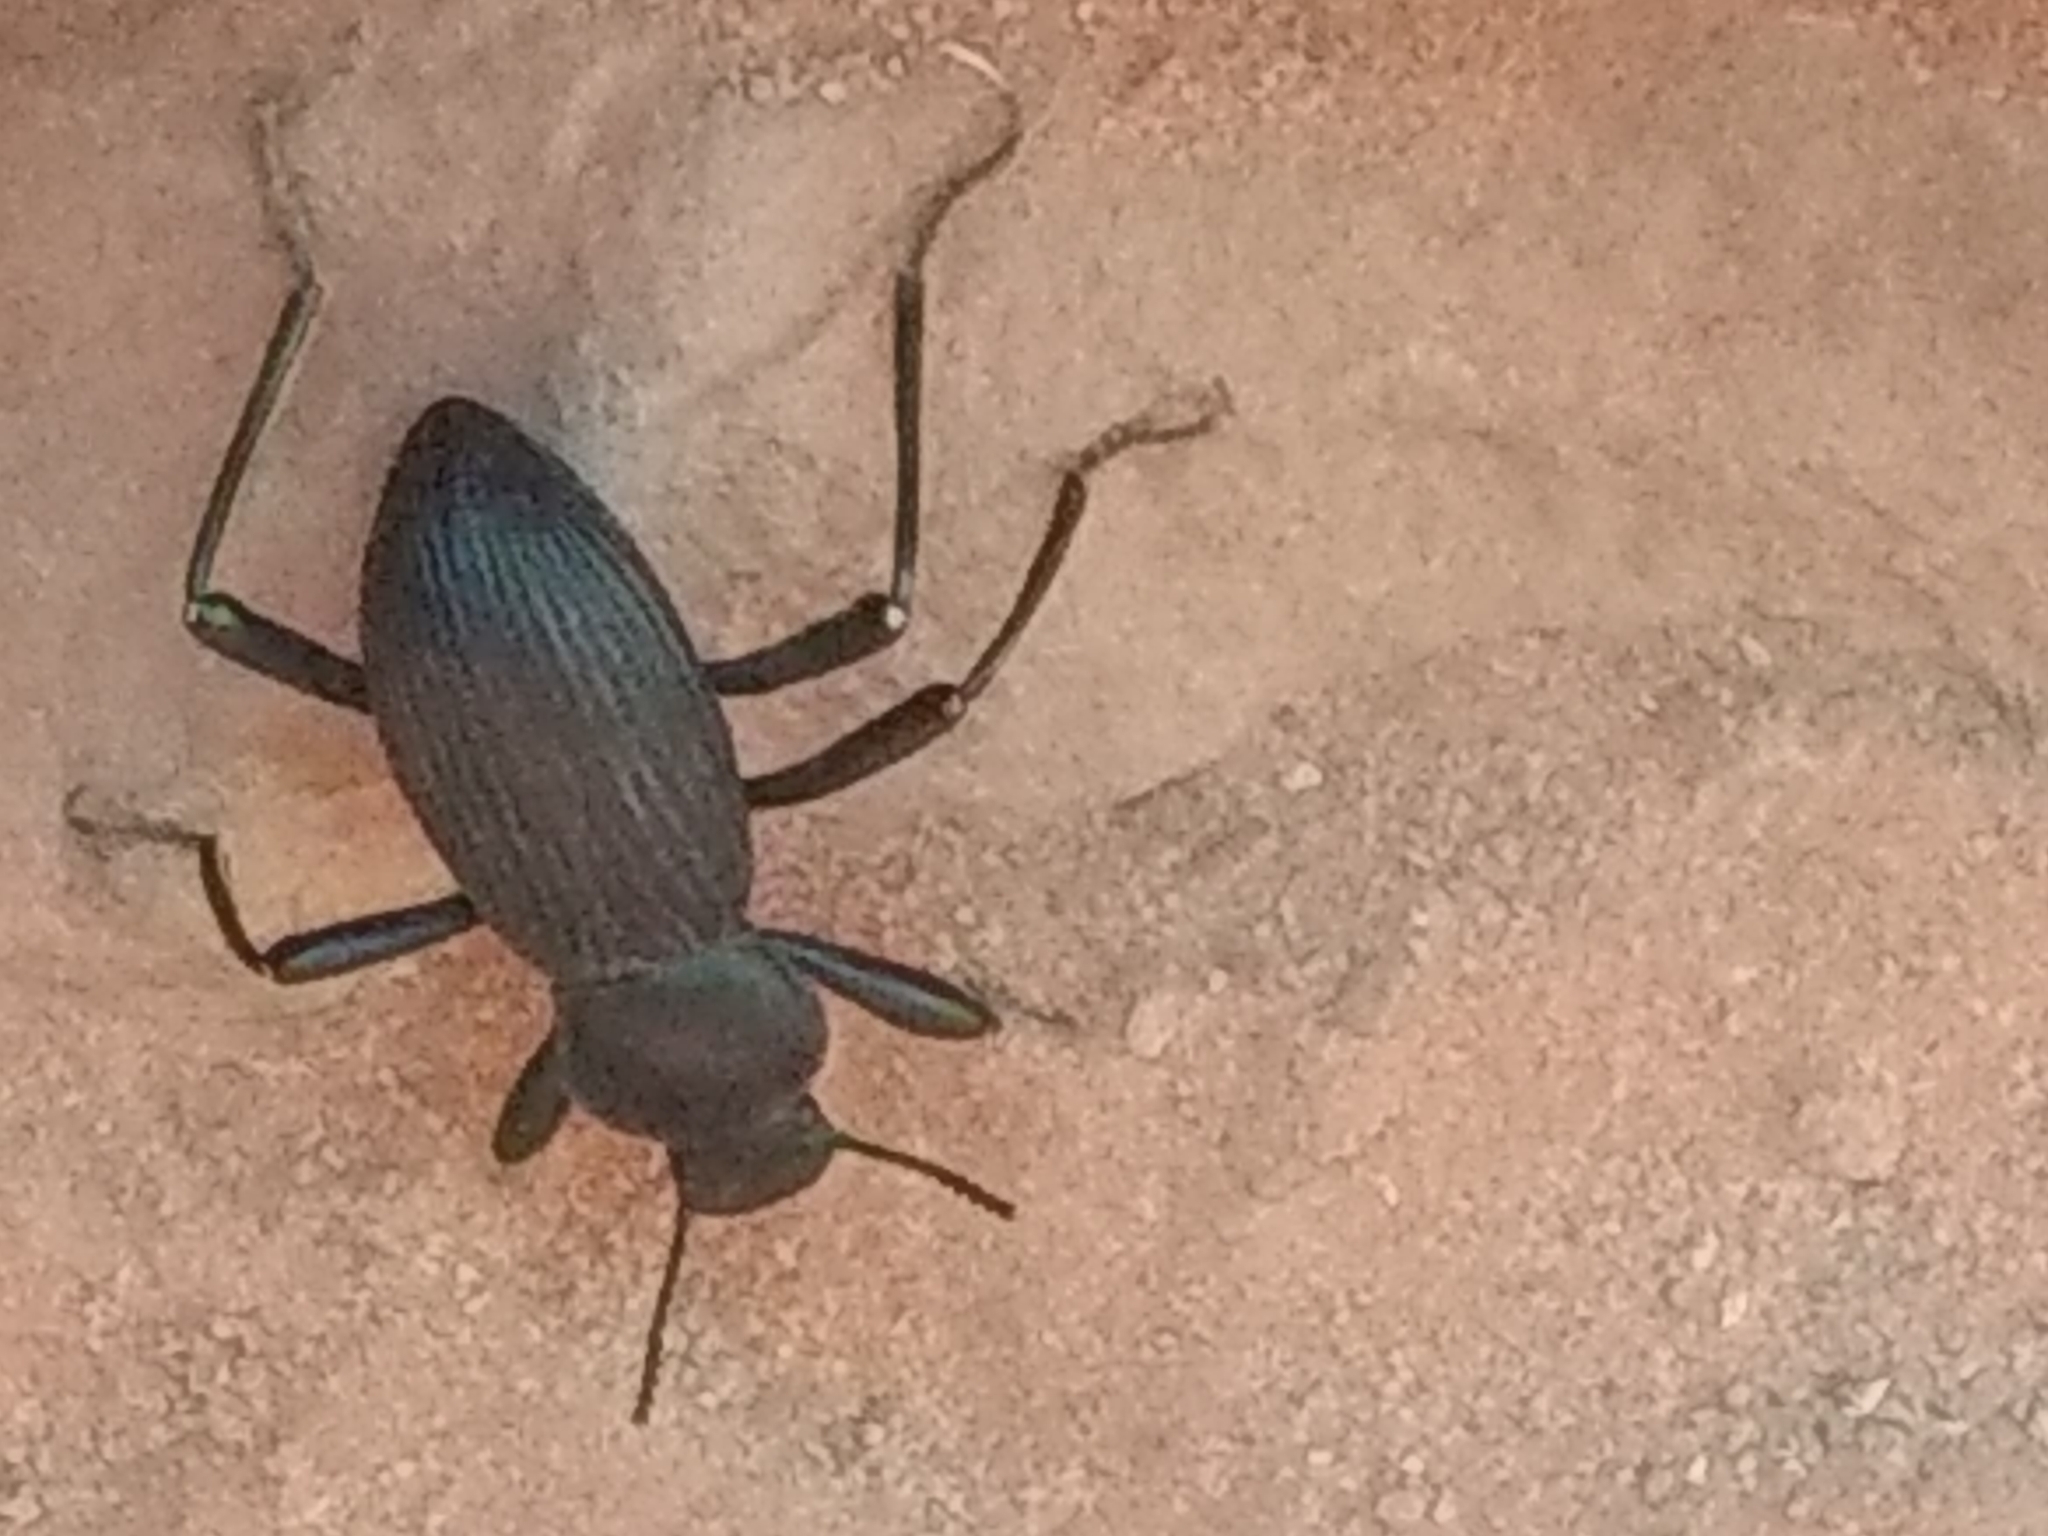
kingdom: Animalia
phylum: Arthropoda
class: Insecta
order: Coleoptera
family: Tenebrionidae
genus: Coelocnemis
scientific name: Coelocnemis sulcata
